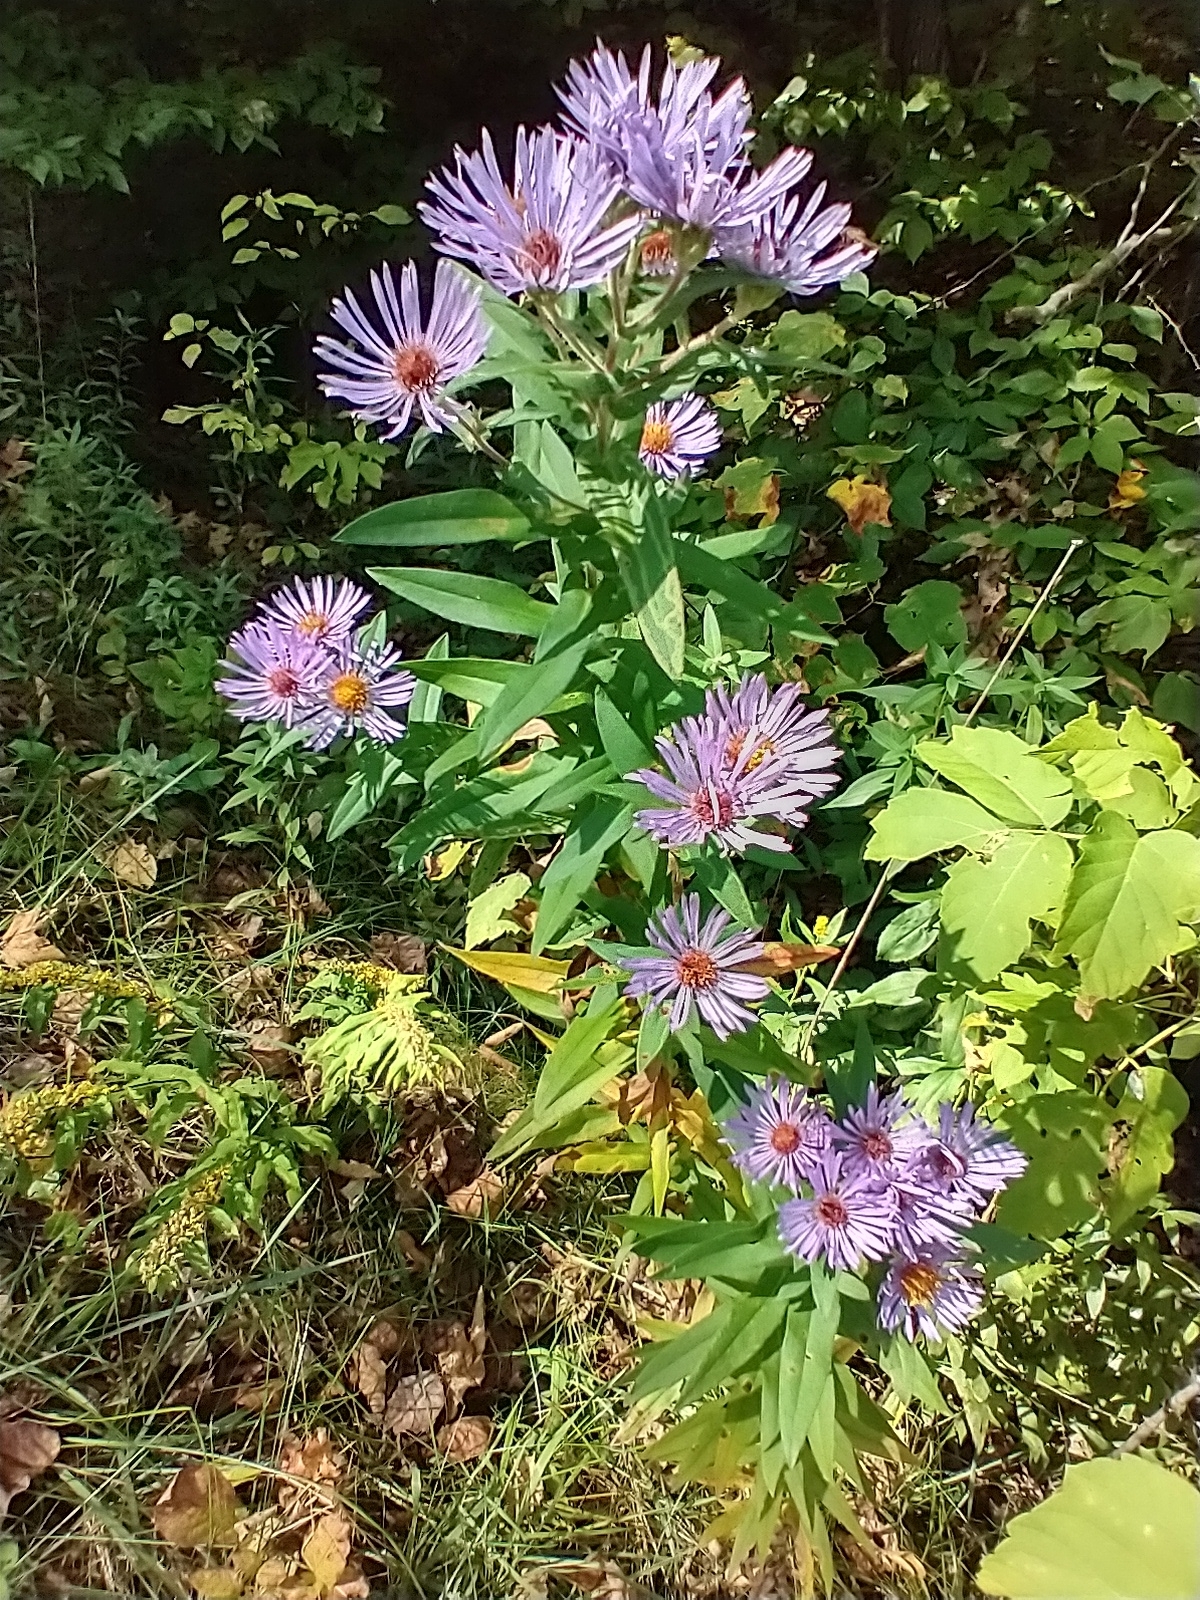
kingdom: Plantae
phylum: Tracheophyta
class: Magnoliopsida
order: Asterales
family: Asteraceae
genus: Symphyotrichum
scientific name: Symphyotrichum novae-angliae
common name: Michaelmas daisy
